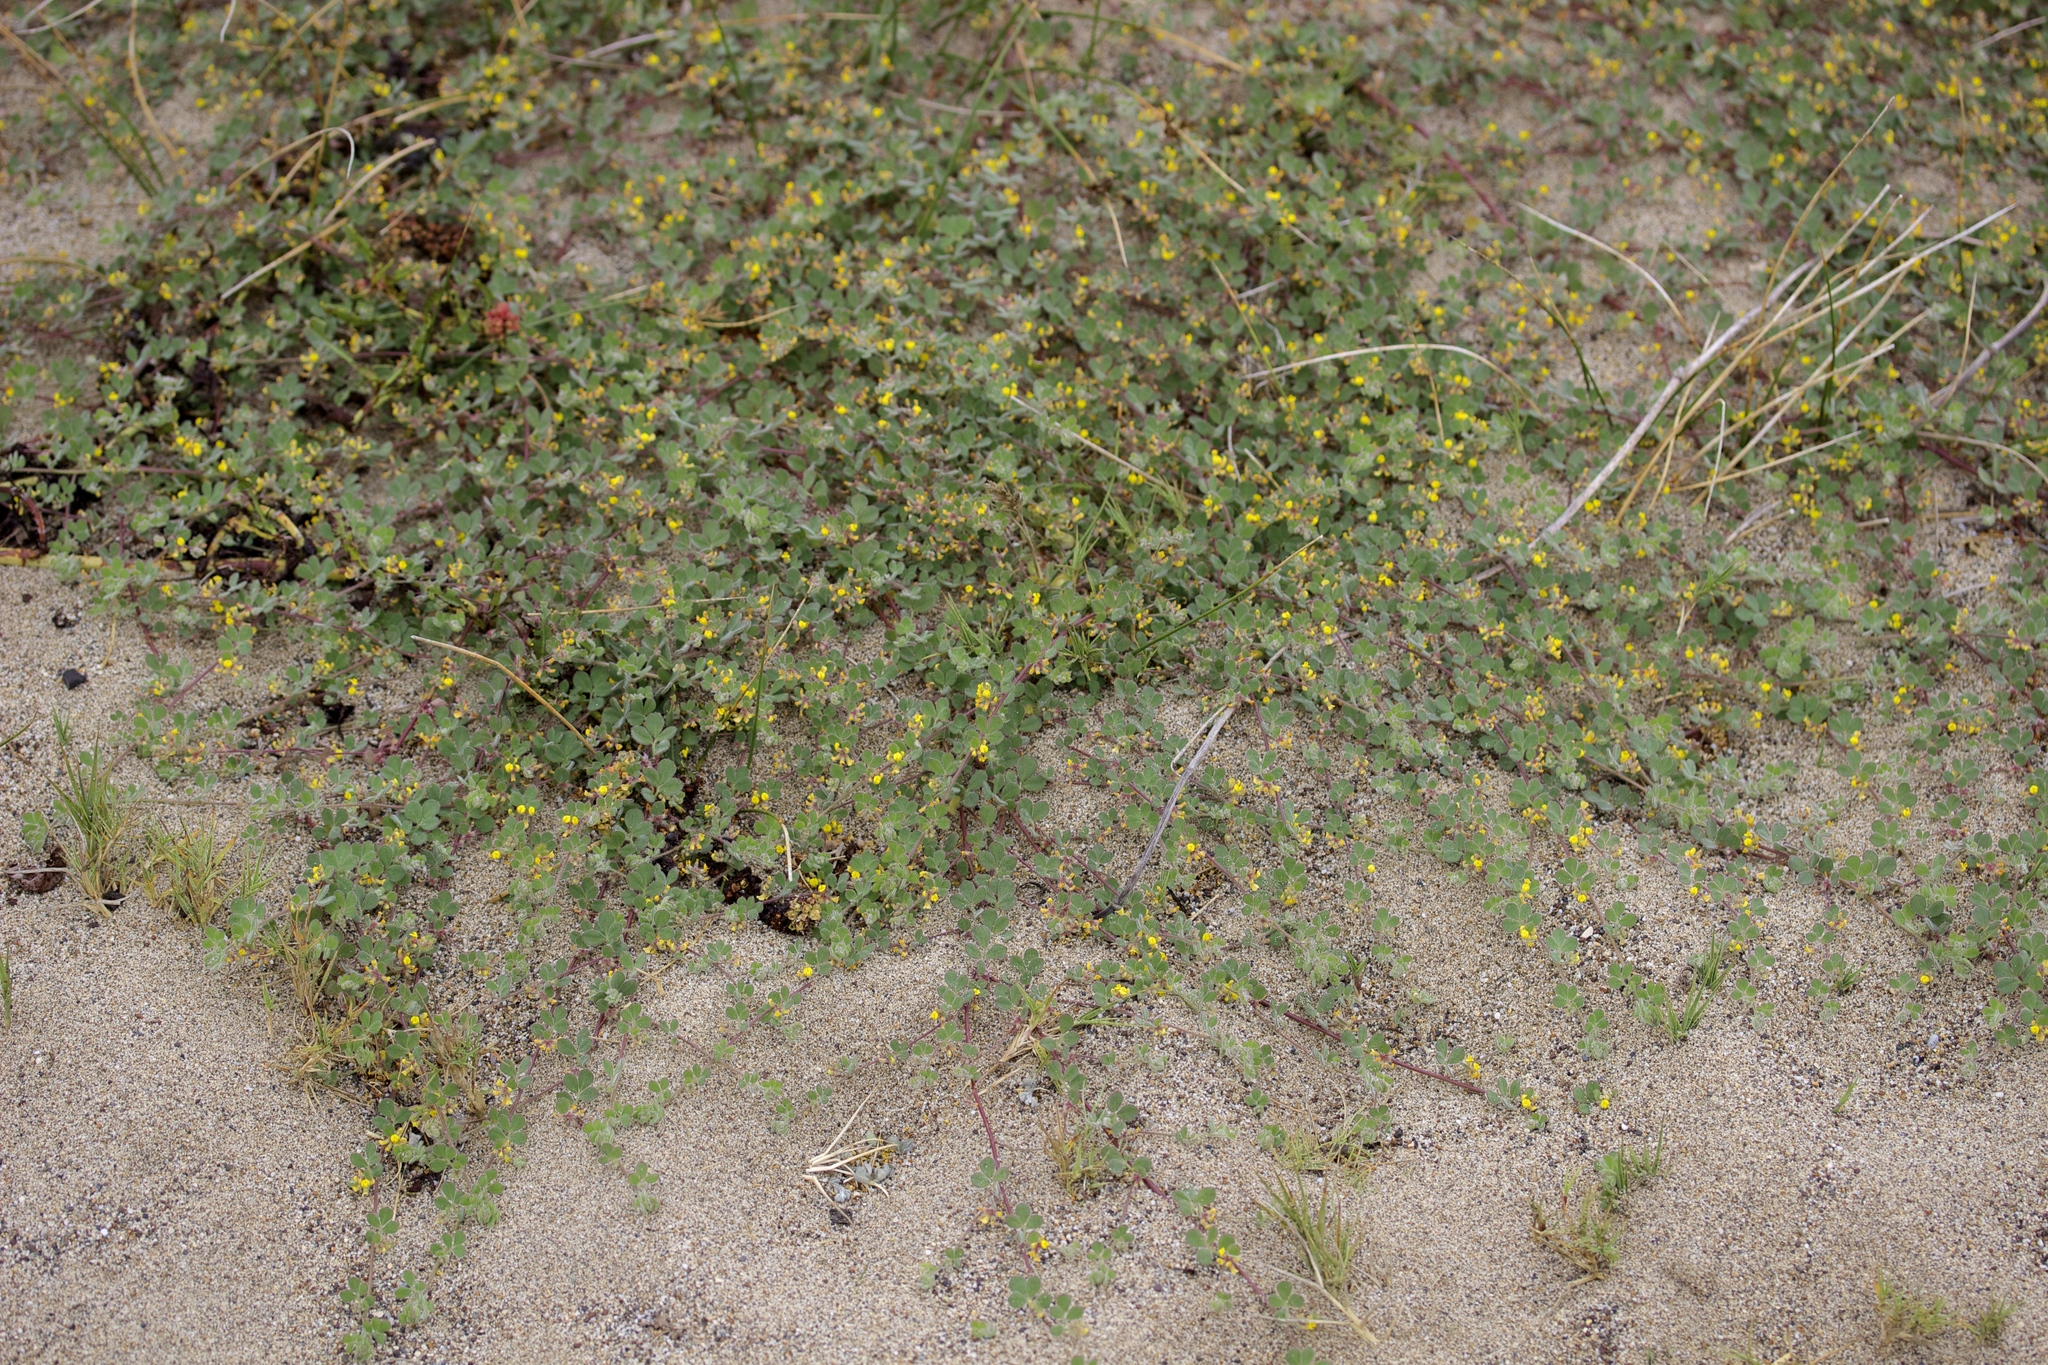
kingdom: Plantae
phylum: Tracheophyta
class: Magnoliopsida
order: Fabales
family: Fabaceae
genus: Acmispon
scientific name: Acmispon tomentosus
